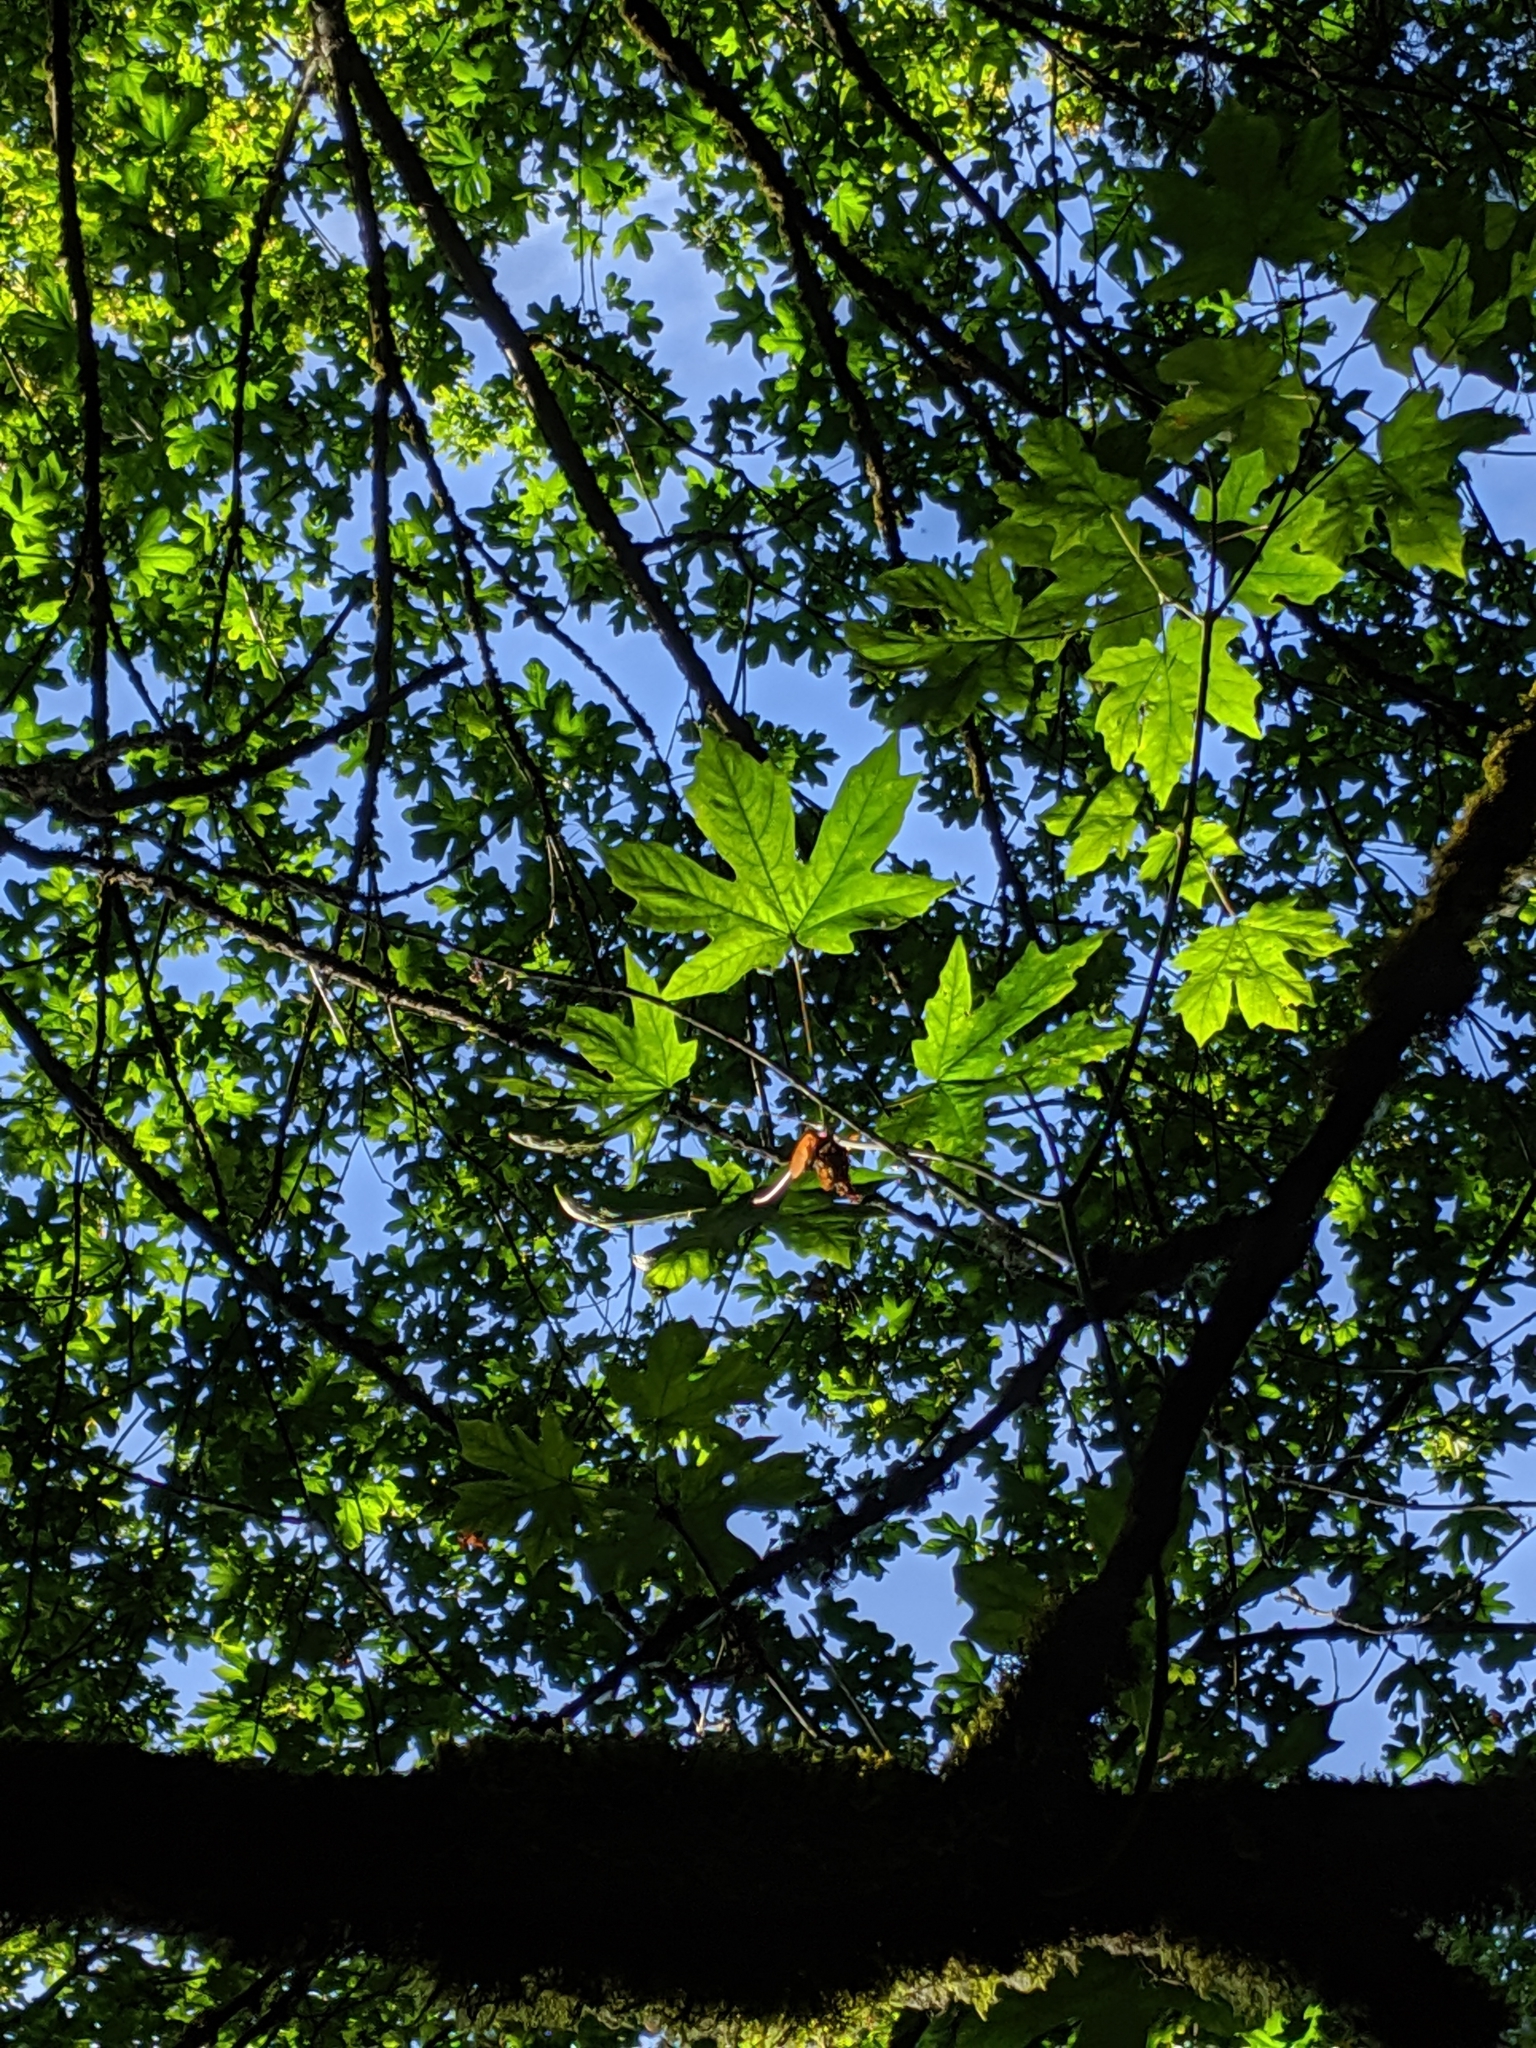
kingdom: Plantae
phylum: Tracheophyta
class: Magnoliopsida
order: Sapindales
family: Sapindaceae
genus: Acer
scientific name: Acer macrophyllum
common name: Oregon maple
